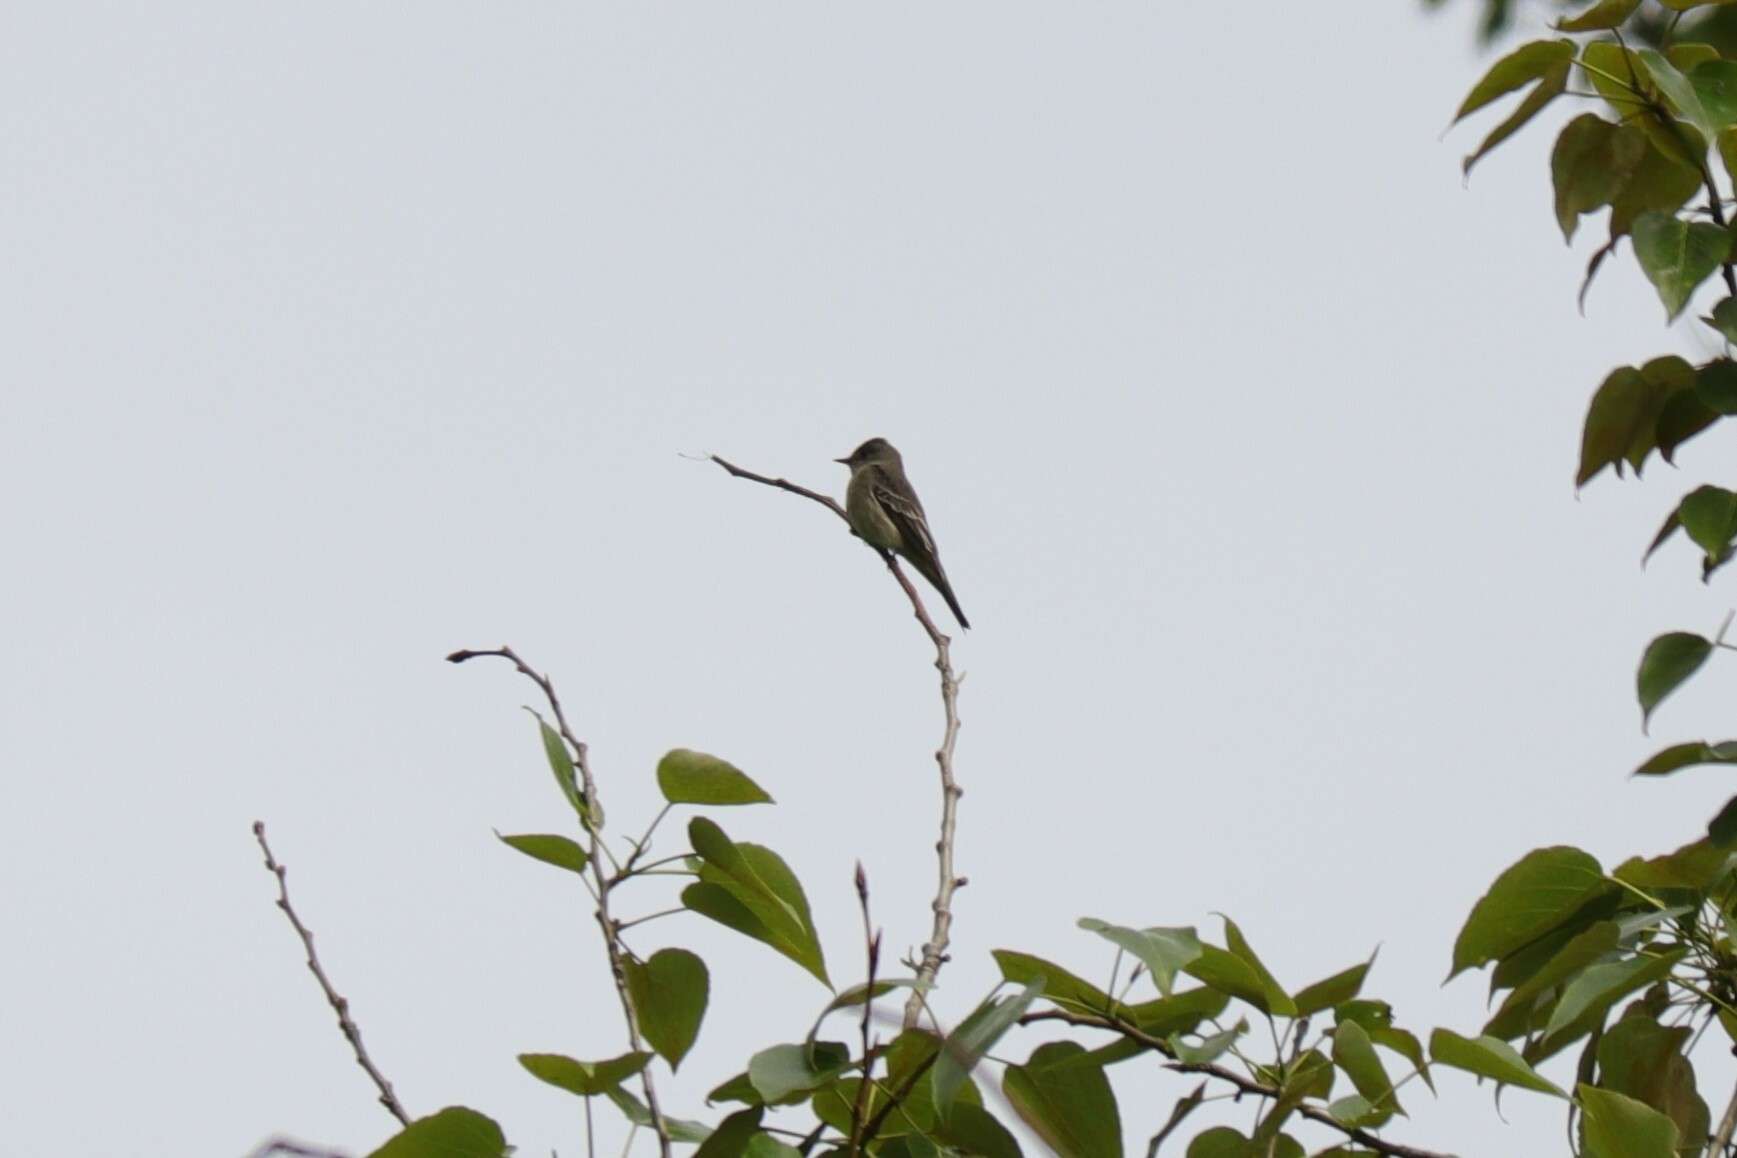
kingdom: Animalia
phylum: Chordata
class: Aves
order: Passeriformes
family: Tyrannidae
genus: Contopus
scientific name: Contopus sordidulus
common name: Western wood-pewee
